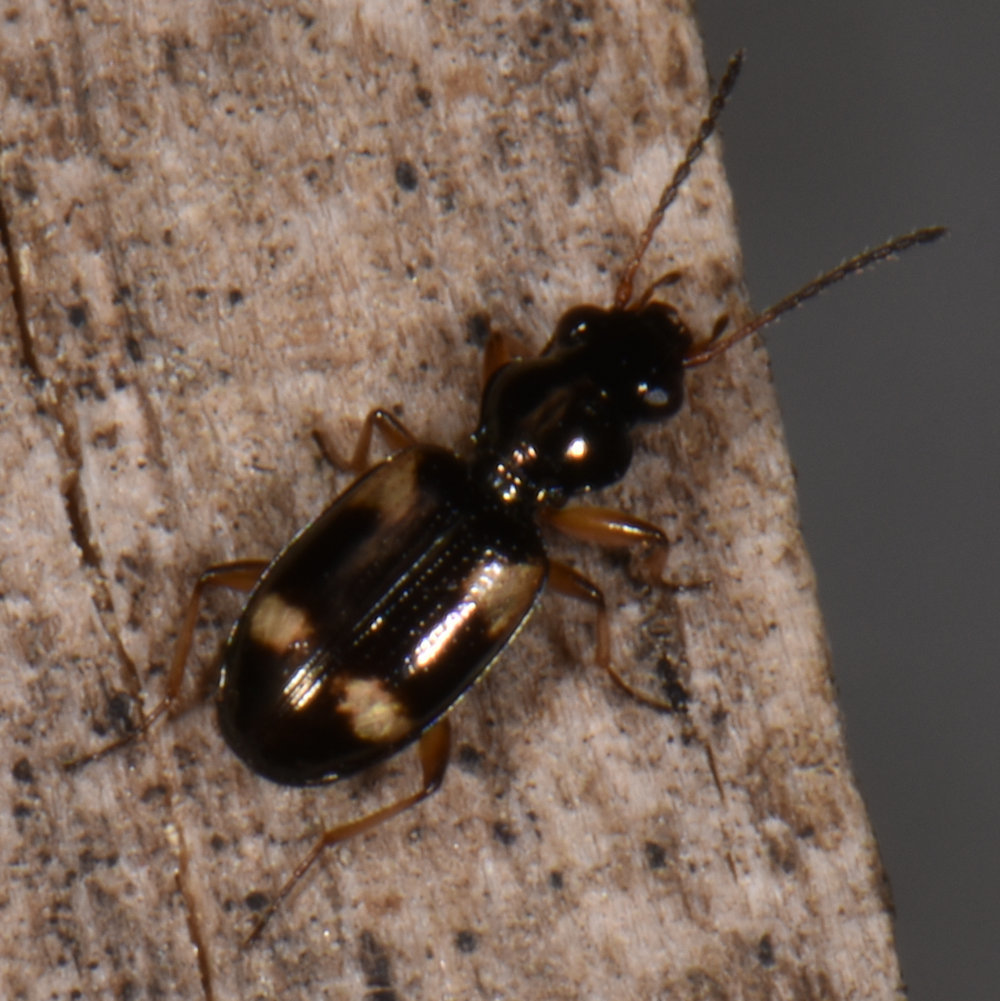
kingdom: Animalia
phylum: Arthropoda
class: Insecta
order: Coleoptera
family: Carabidae
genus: Bembidion
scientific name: Bembidion quadrimaculatum
